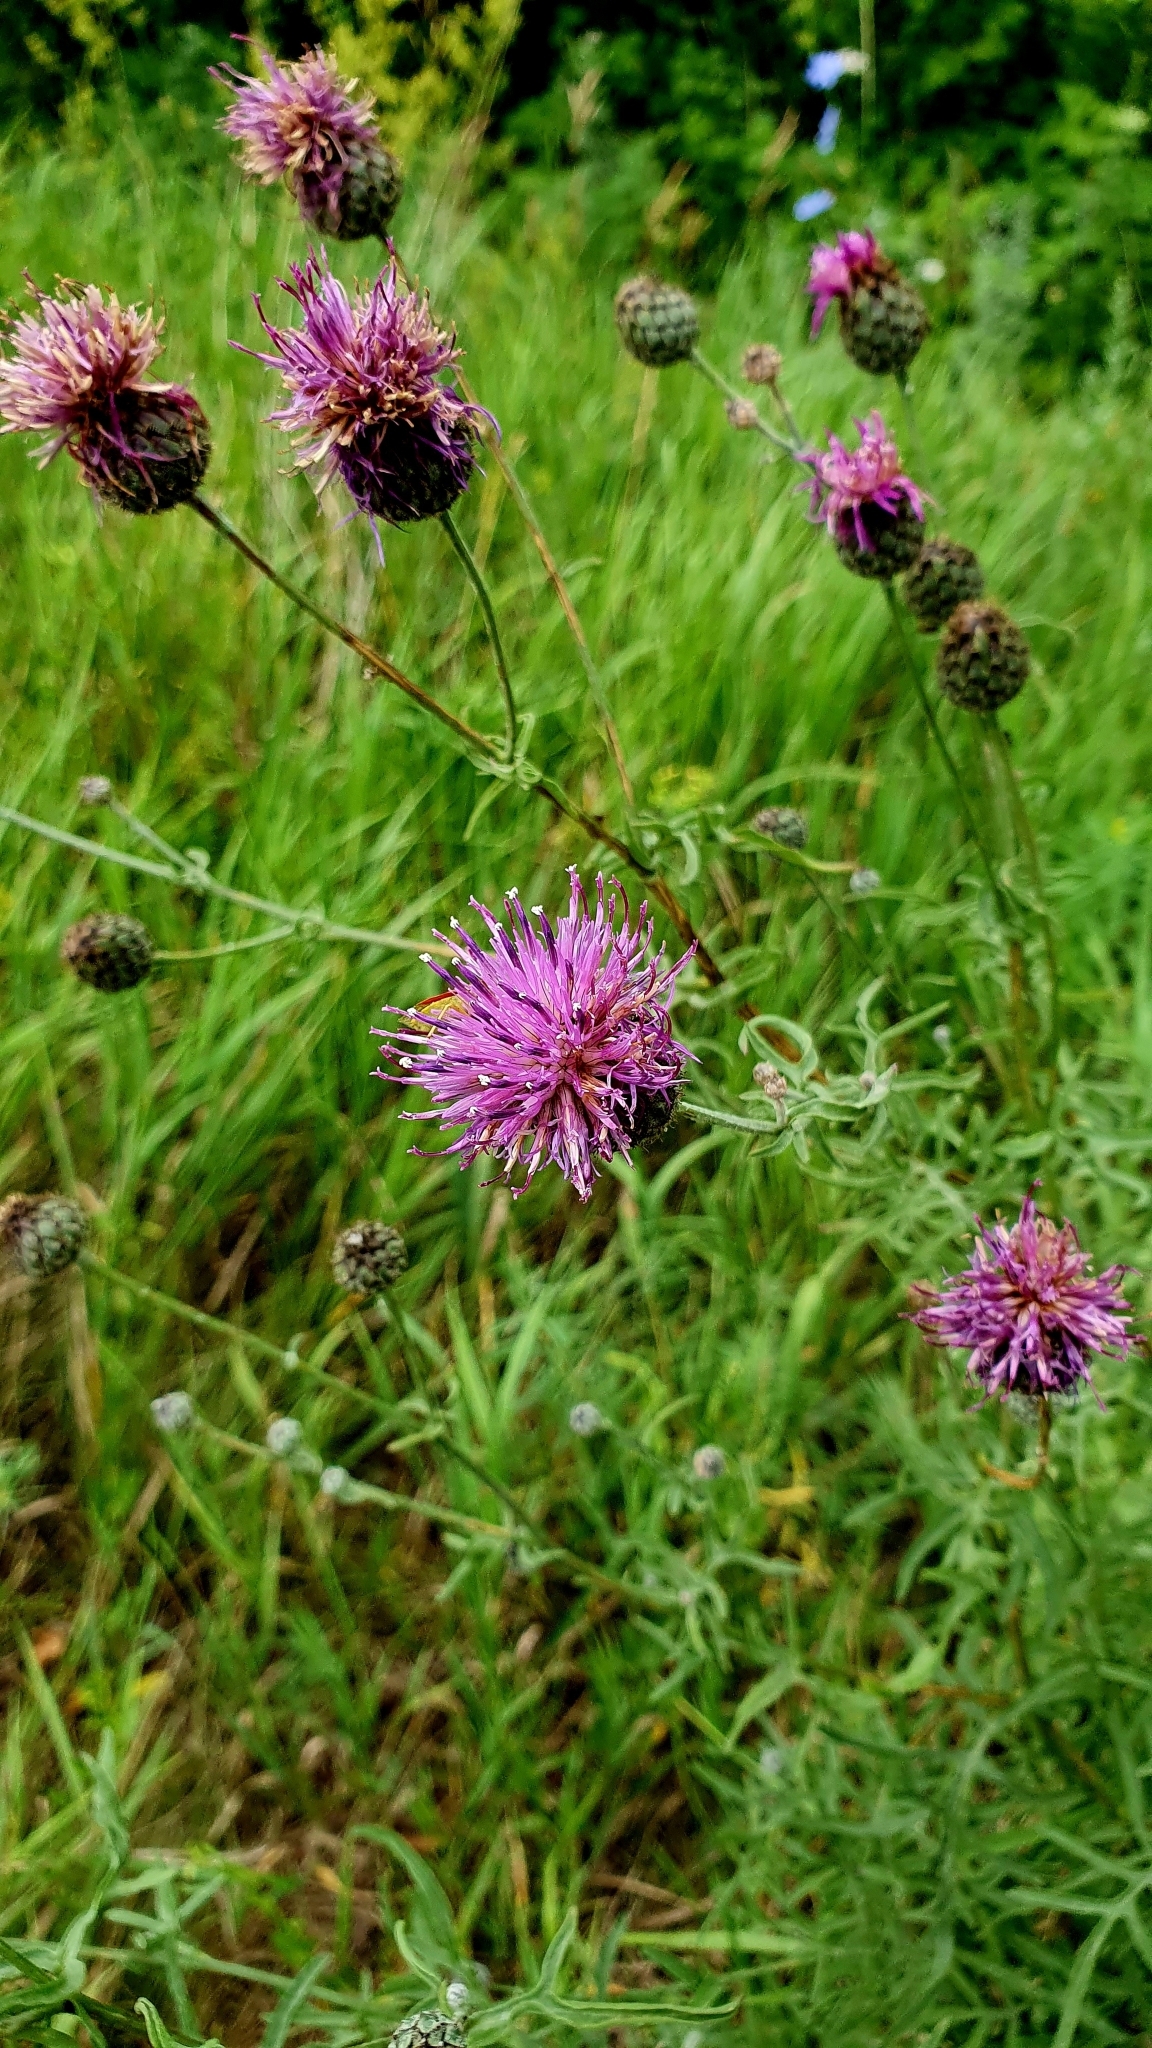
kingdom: Plantae
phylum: Tracheophyta
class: Magnoliopsida
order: Asterales
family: Asteraceae
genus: Centaurea
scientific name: Centaurea scabiosa
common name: Greater knapweed
